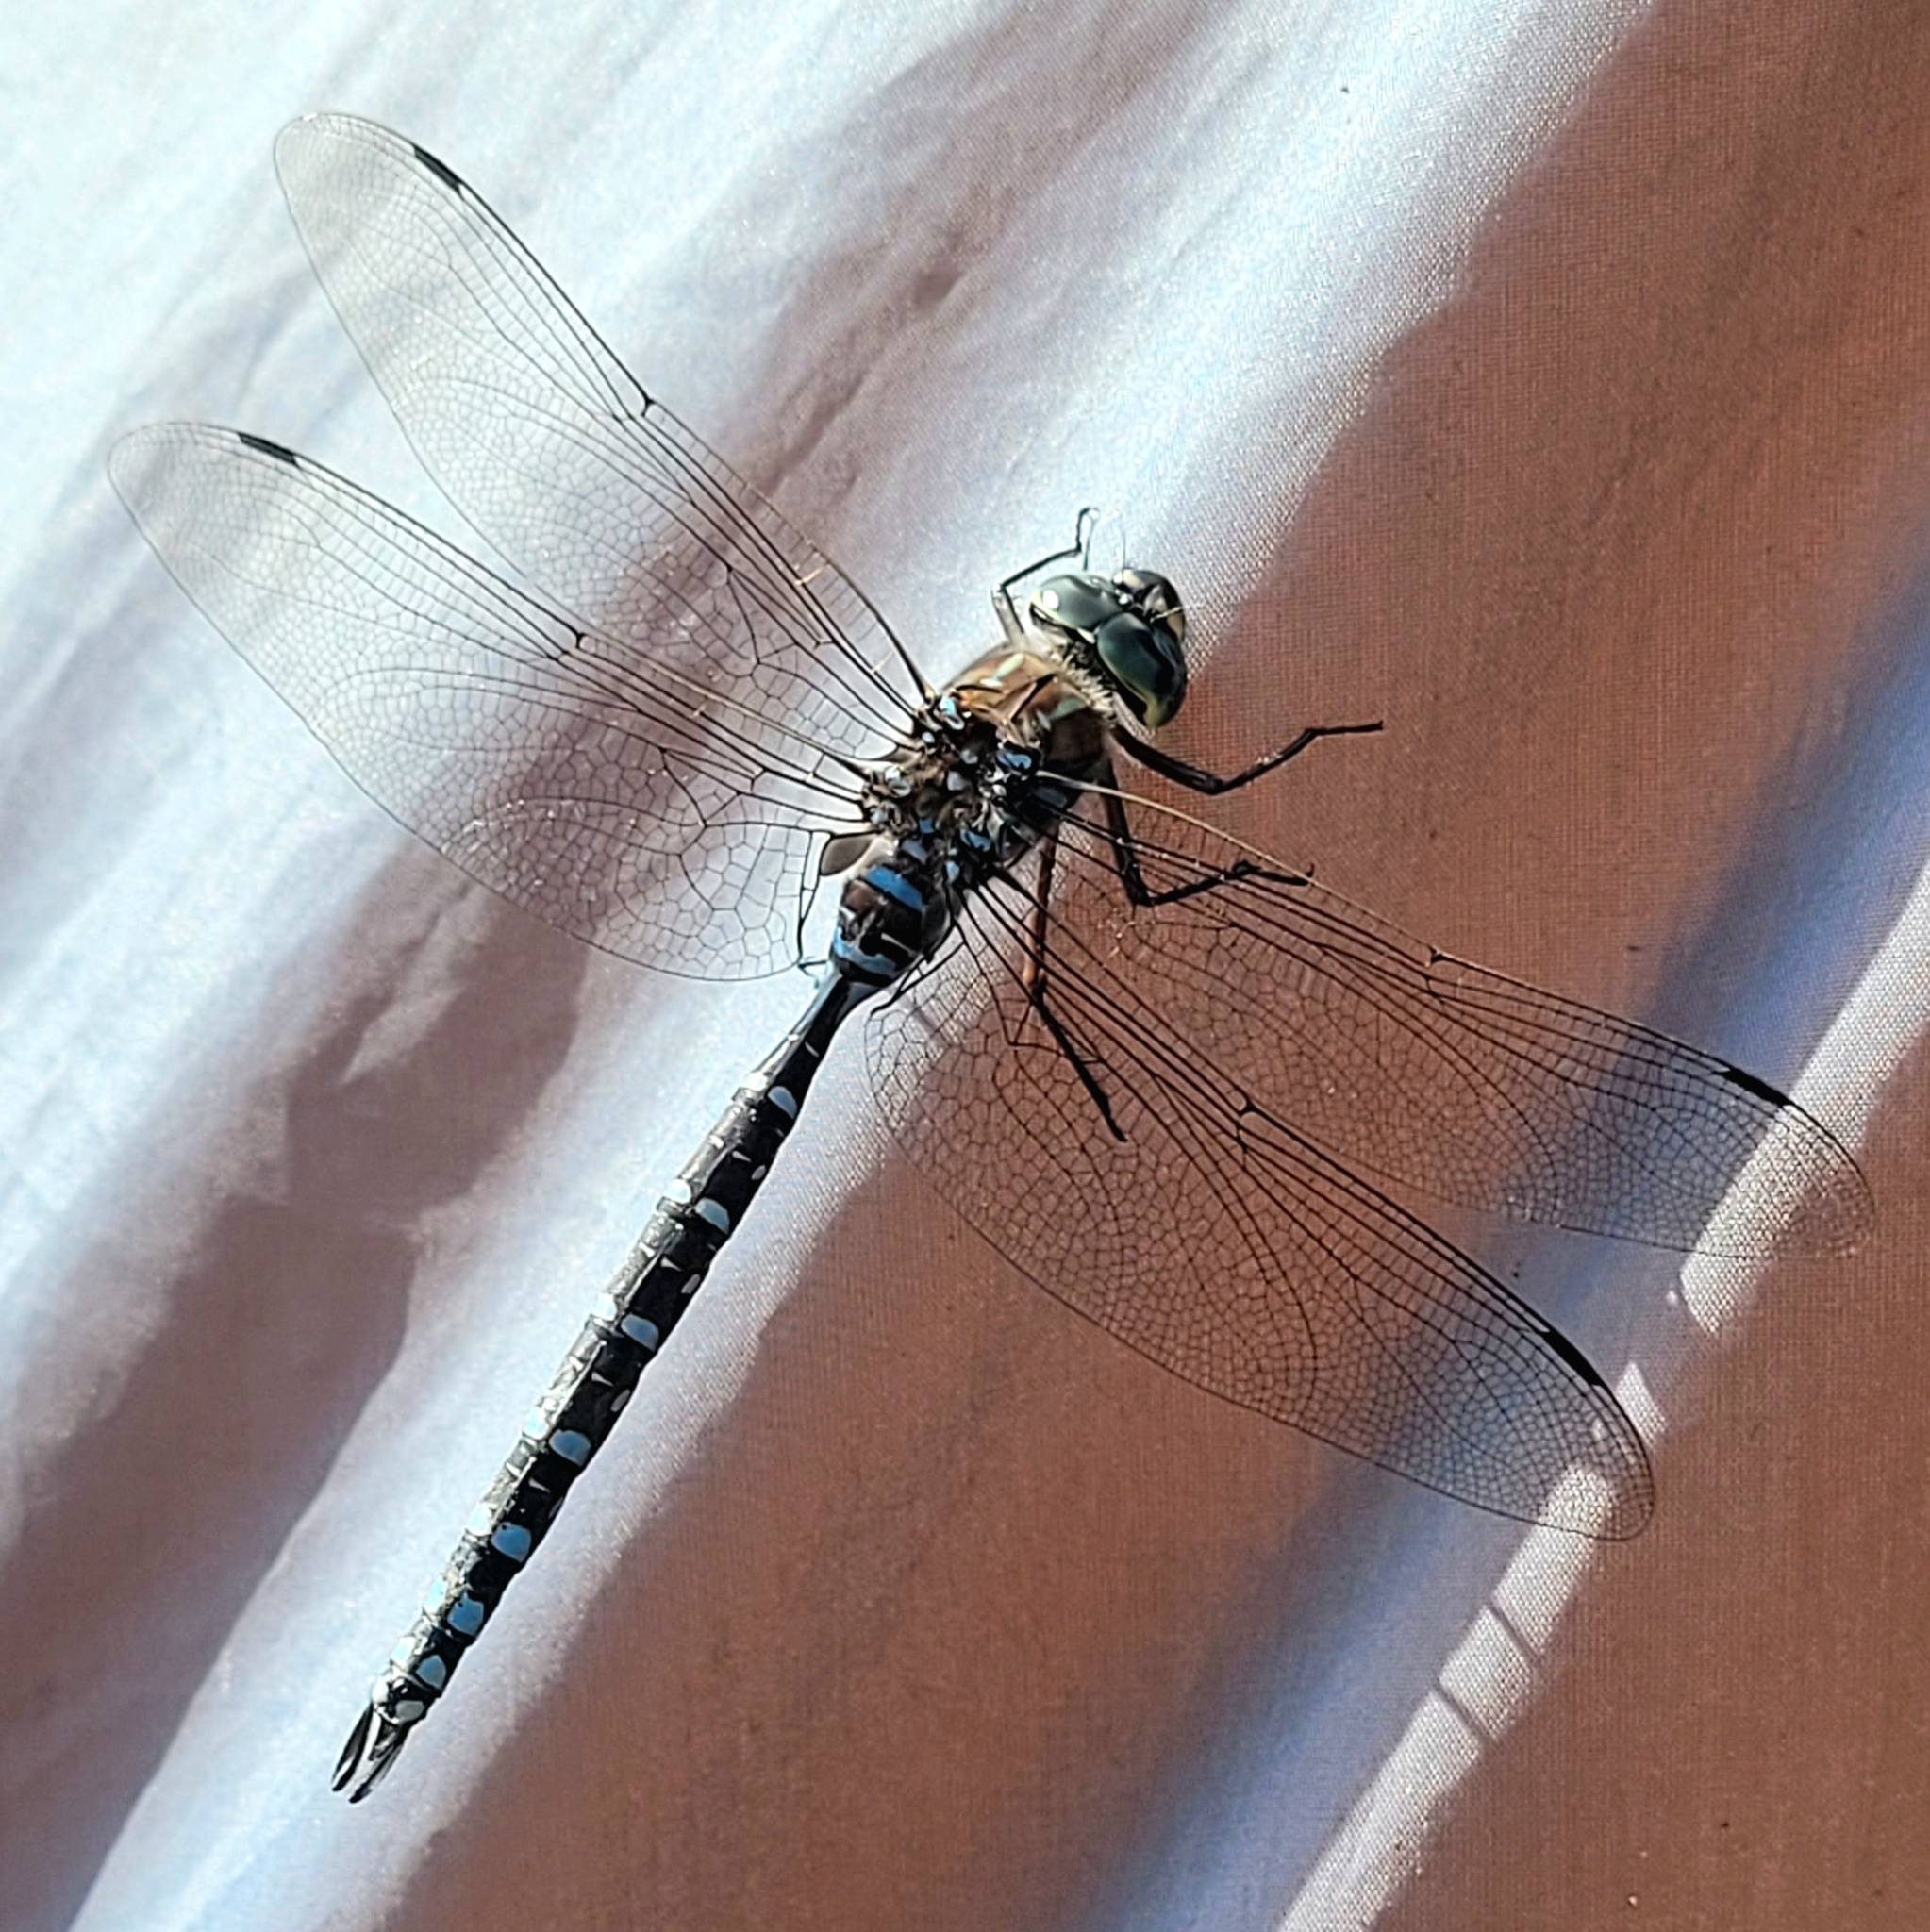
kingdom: Animalia
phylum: Arthropoda
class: Insecta
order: Odonata
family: Aeshnidae
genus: Aeshna
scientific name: Aeshna eremita
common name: Lake darner
